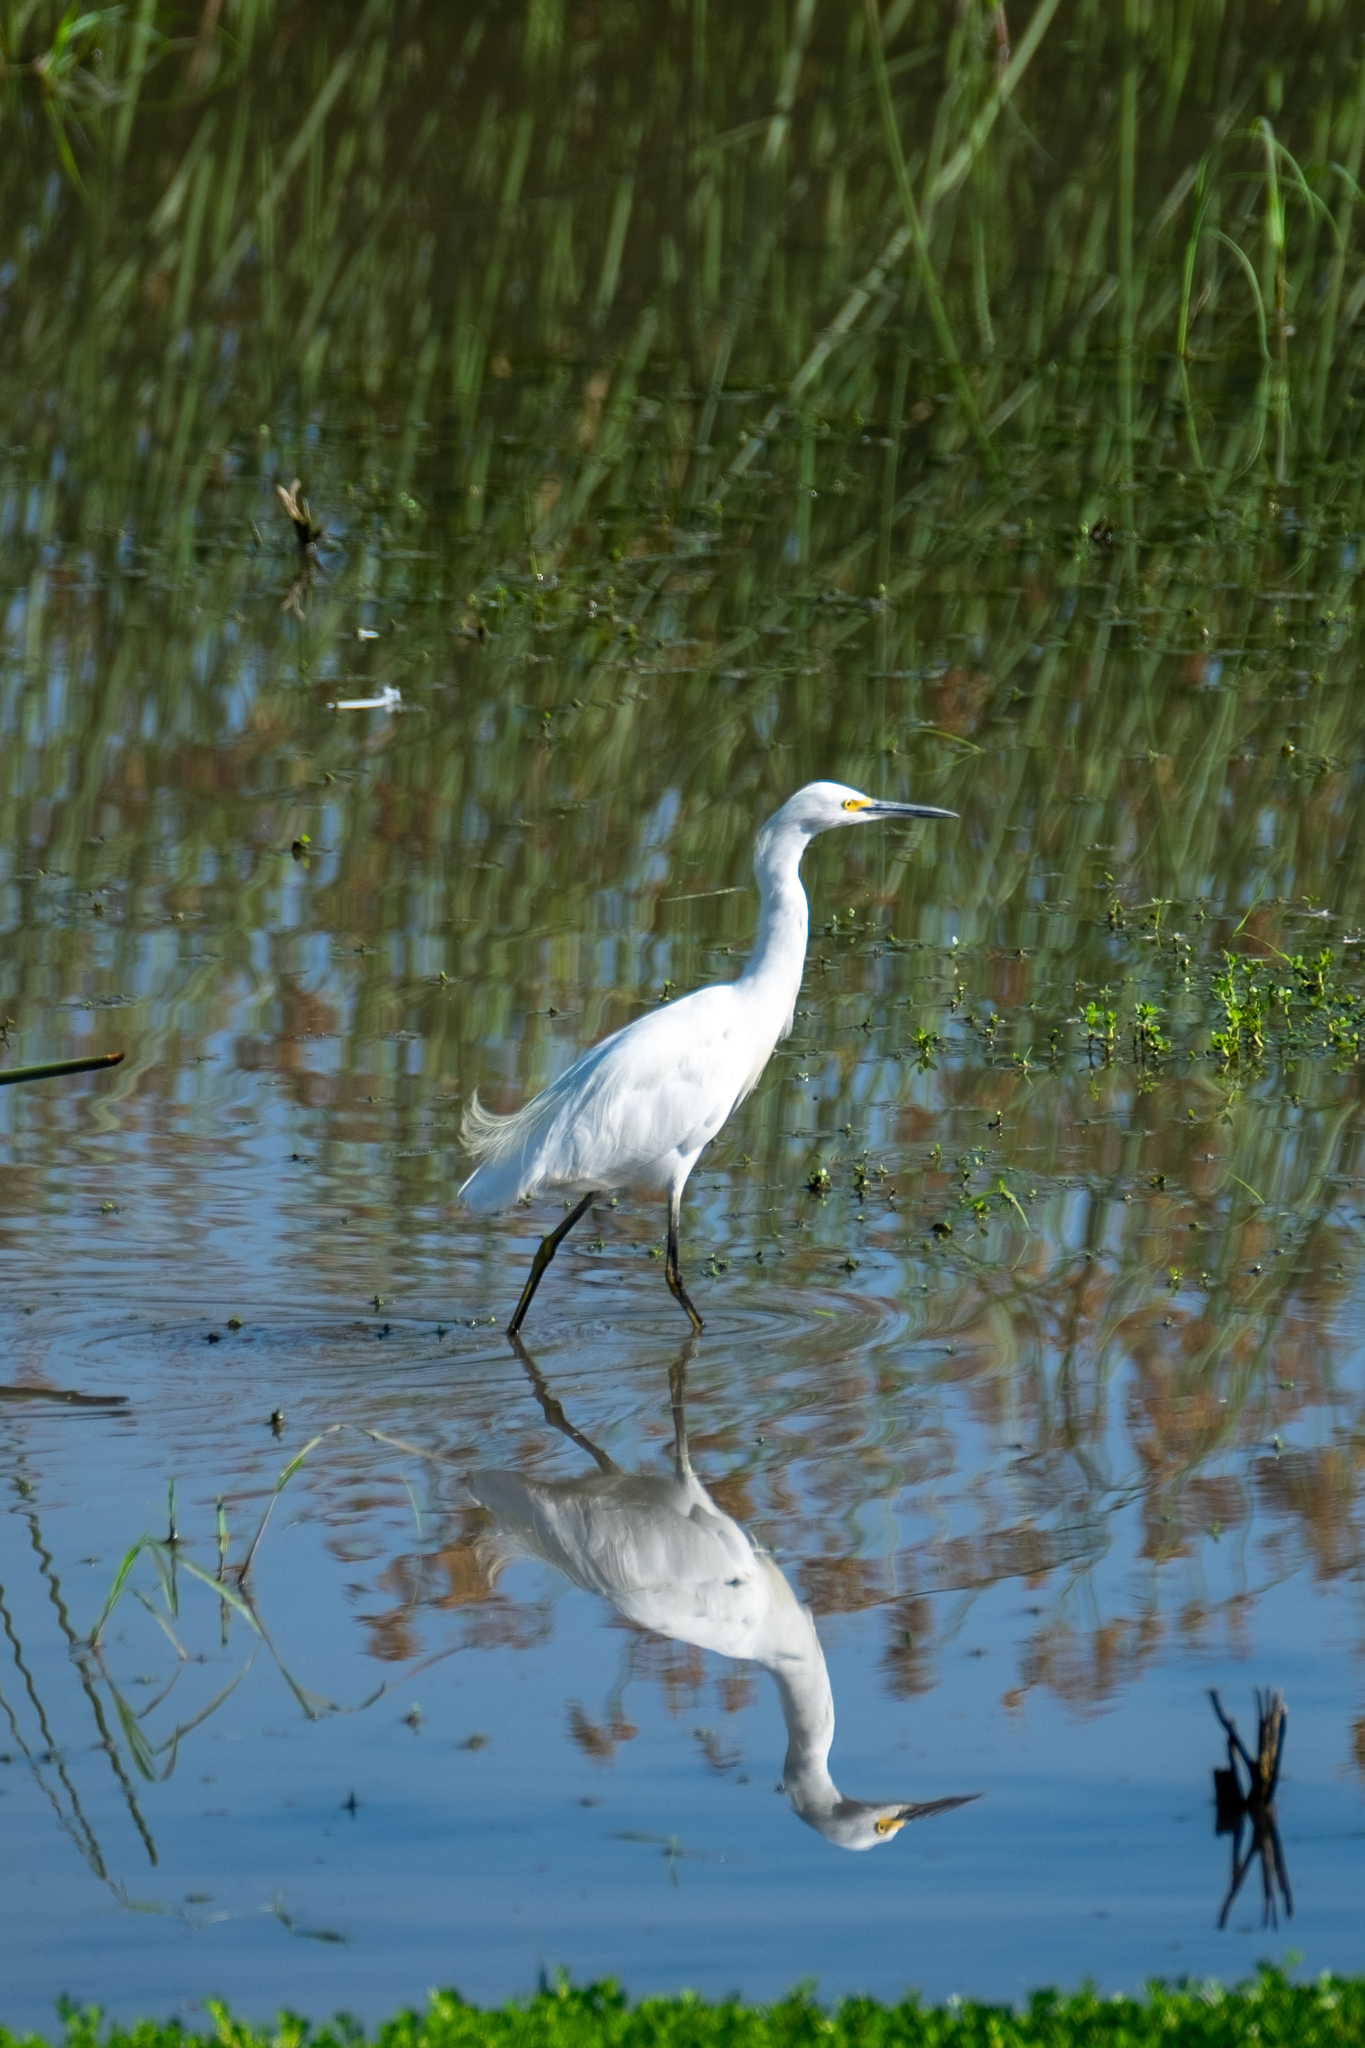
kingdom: Animalia
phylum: Chordata
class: Aves
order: Pelecaniformes
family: Ardeidae
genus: Egretta
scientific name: Egretta thula
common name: Snowy egret
